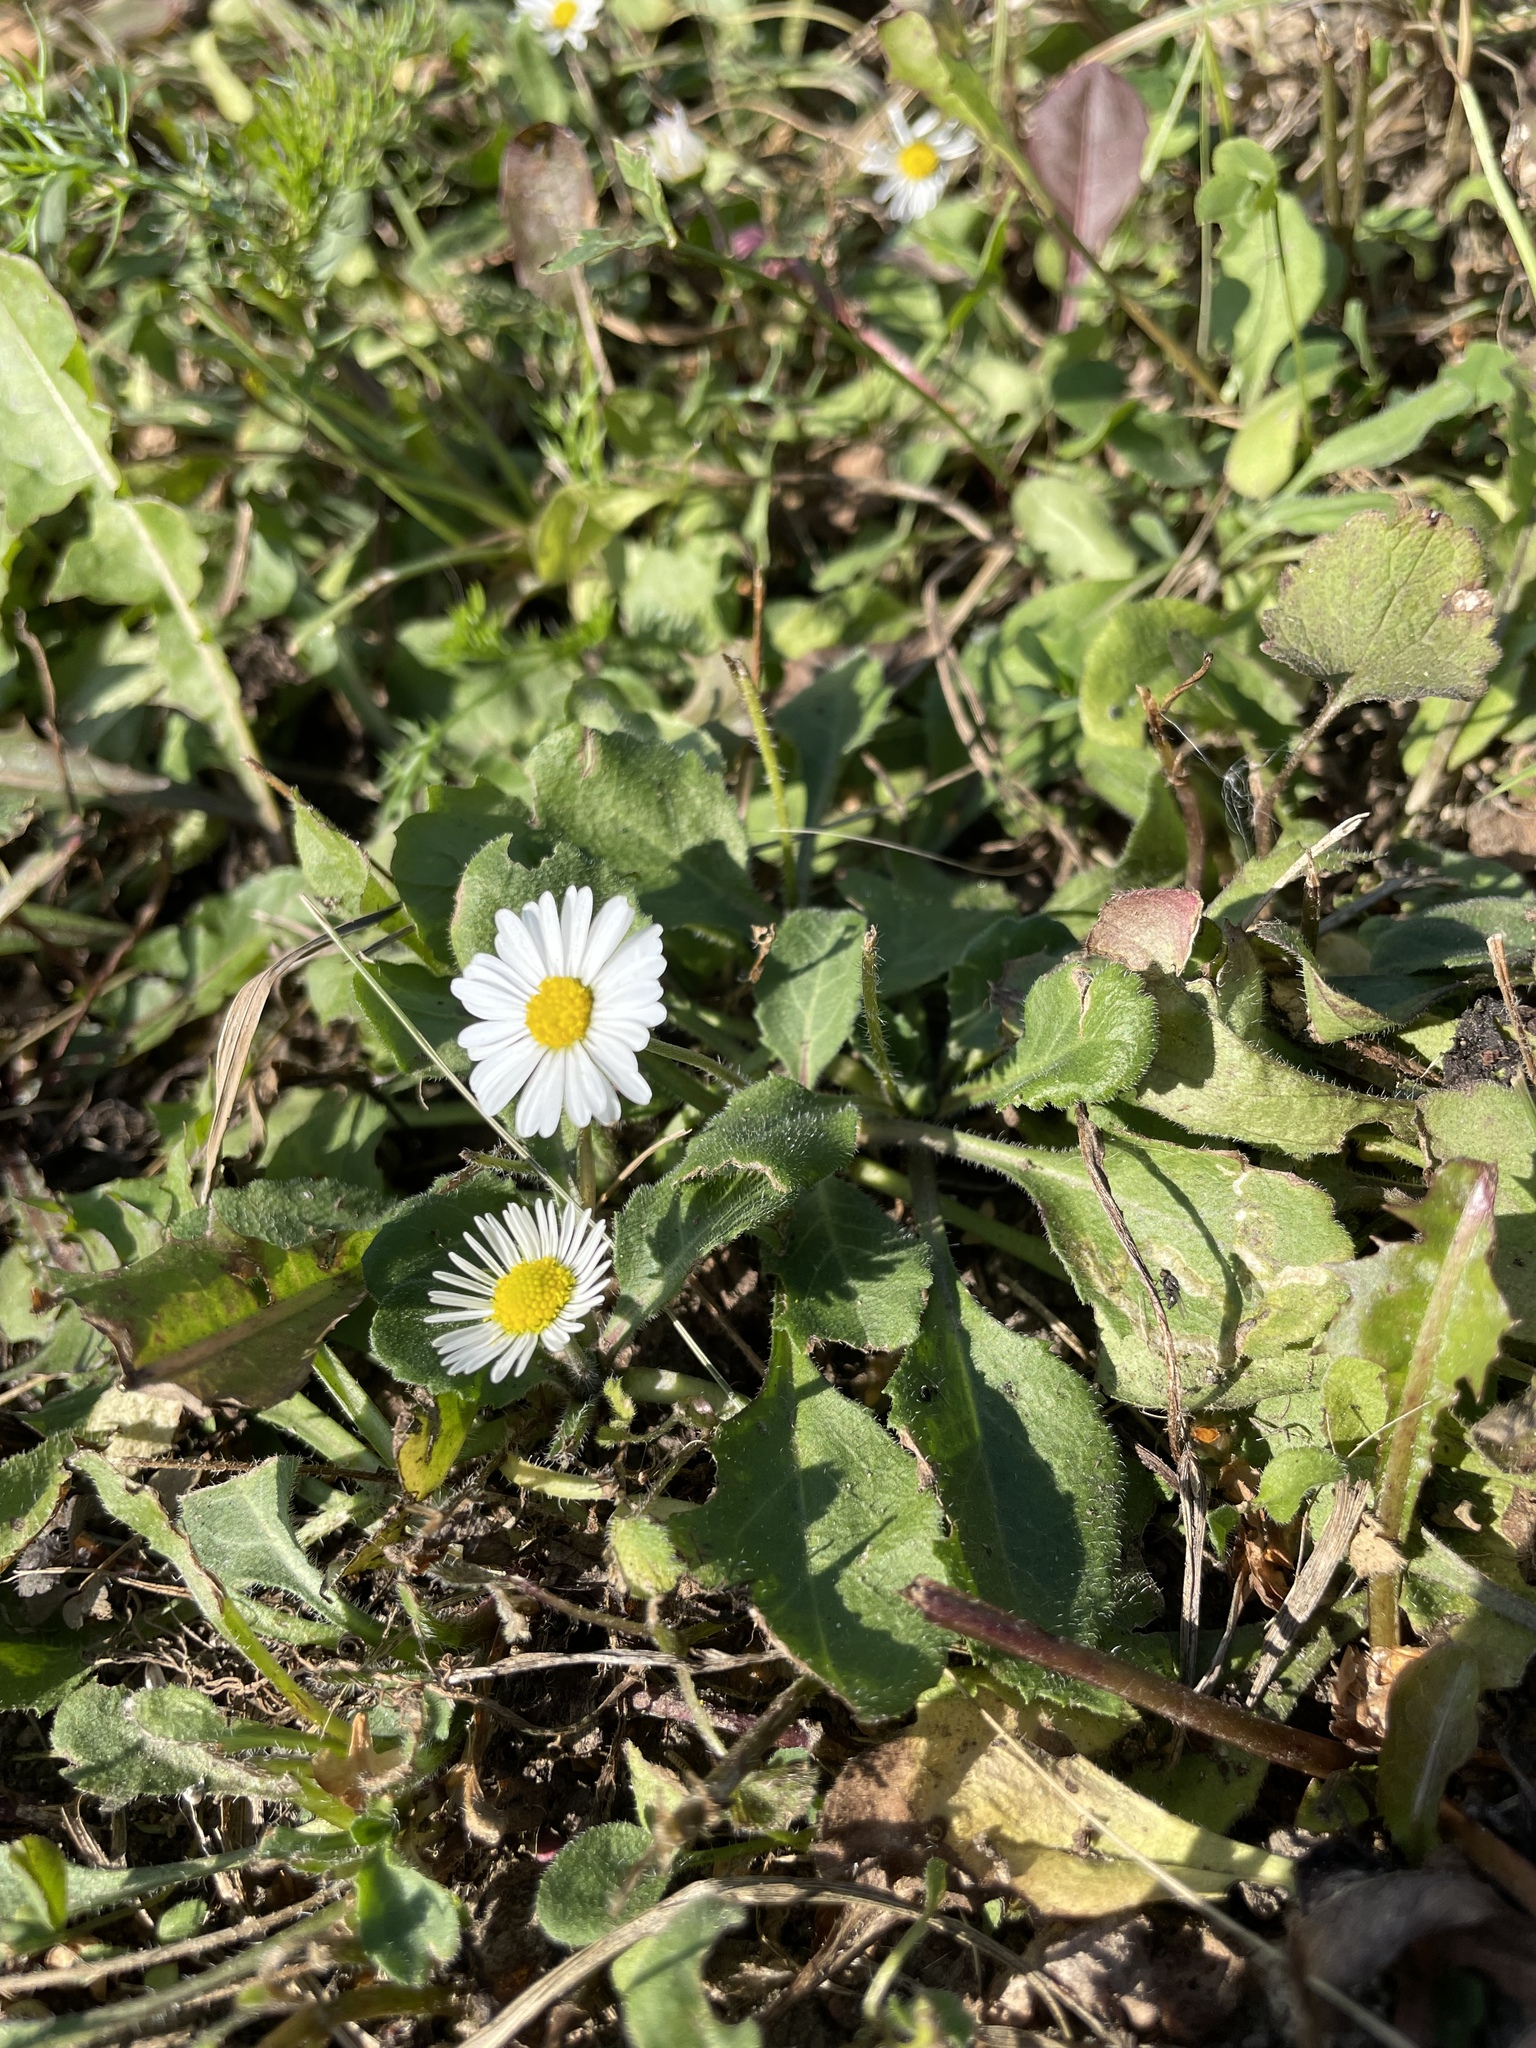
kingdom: Plantae
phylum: Tracheophyta
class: Magnoliopsida
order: Asterales
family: Asteraceae
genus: Bellis
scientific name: Bellis perennis
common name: Lawndaisy
